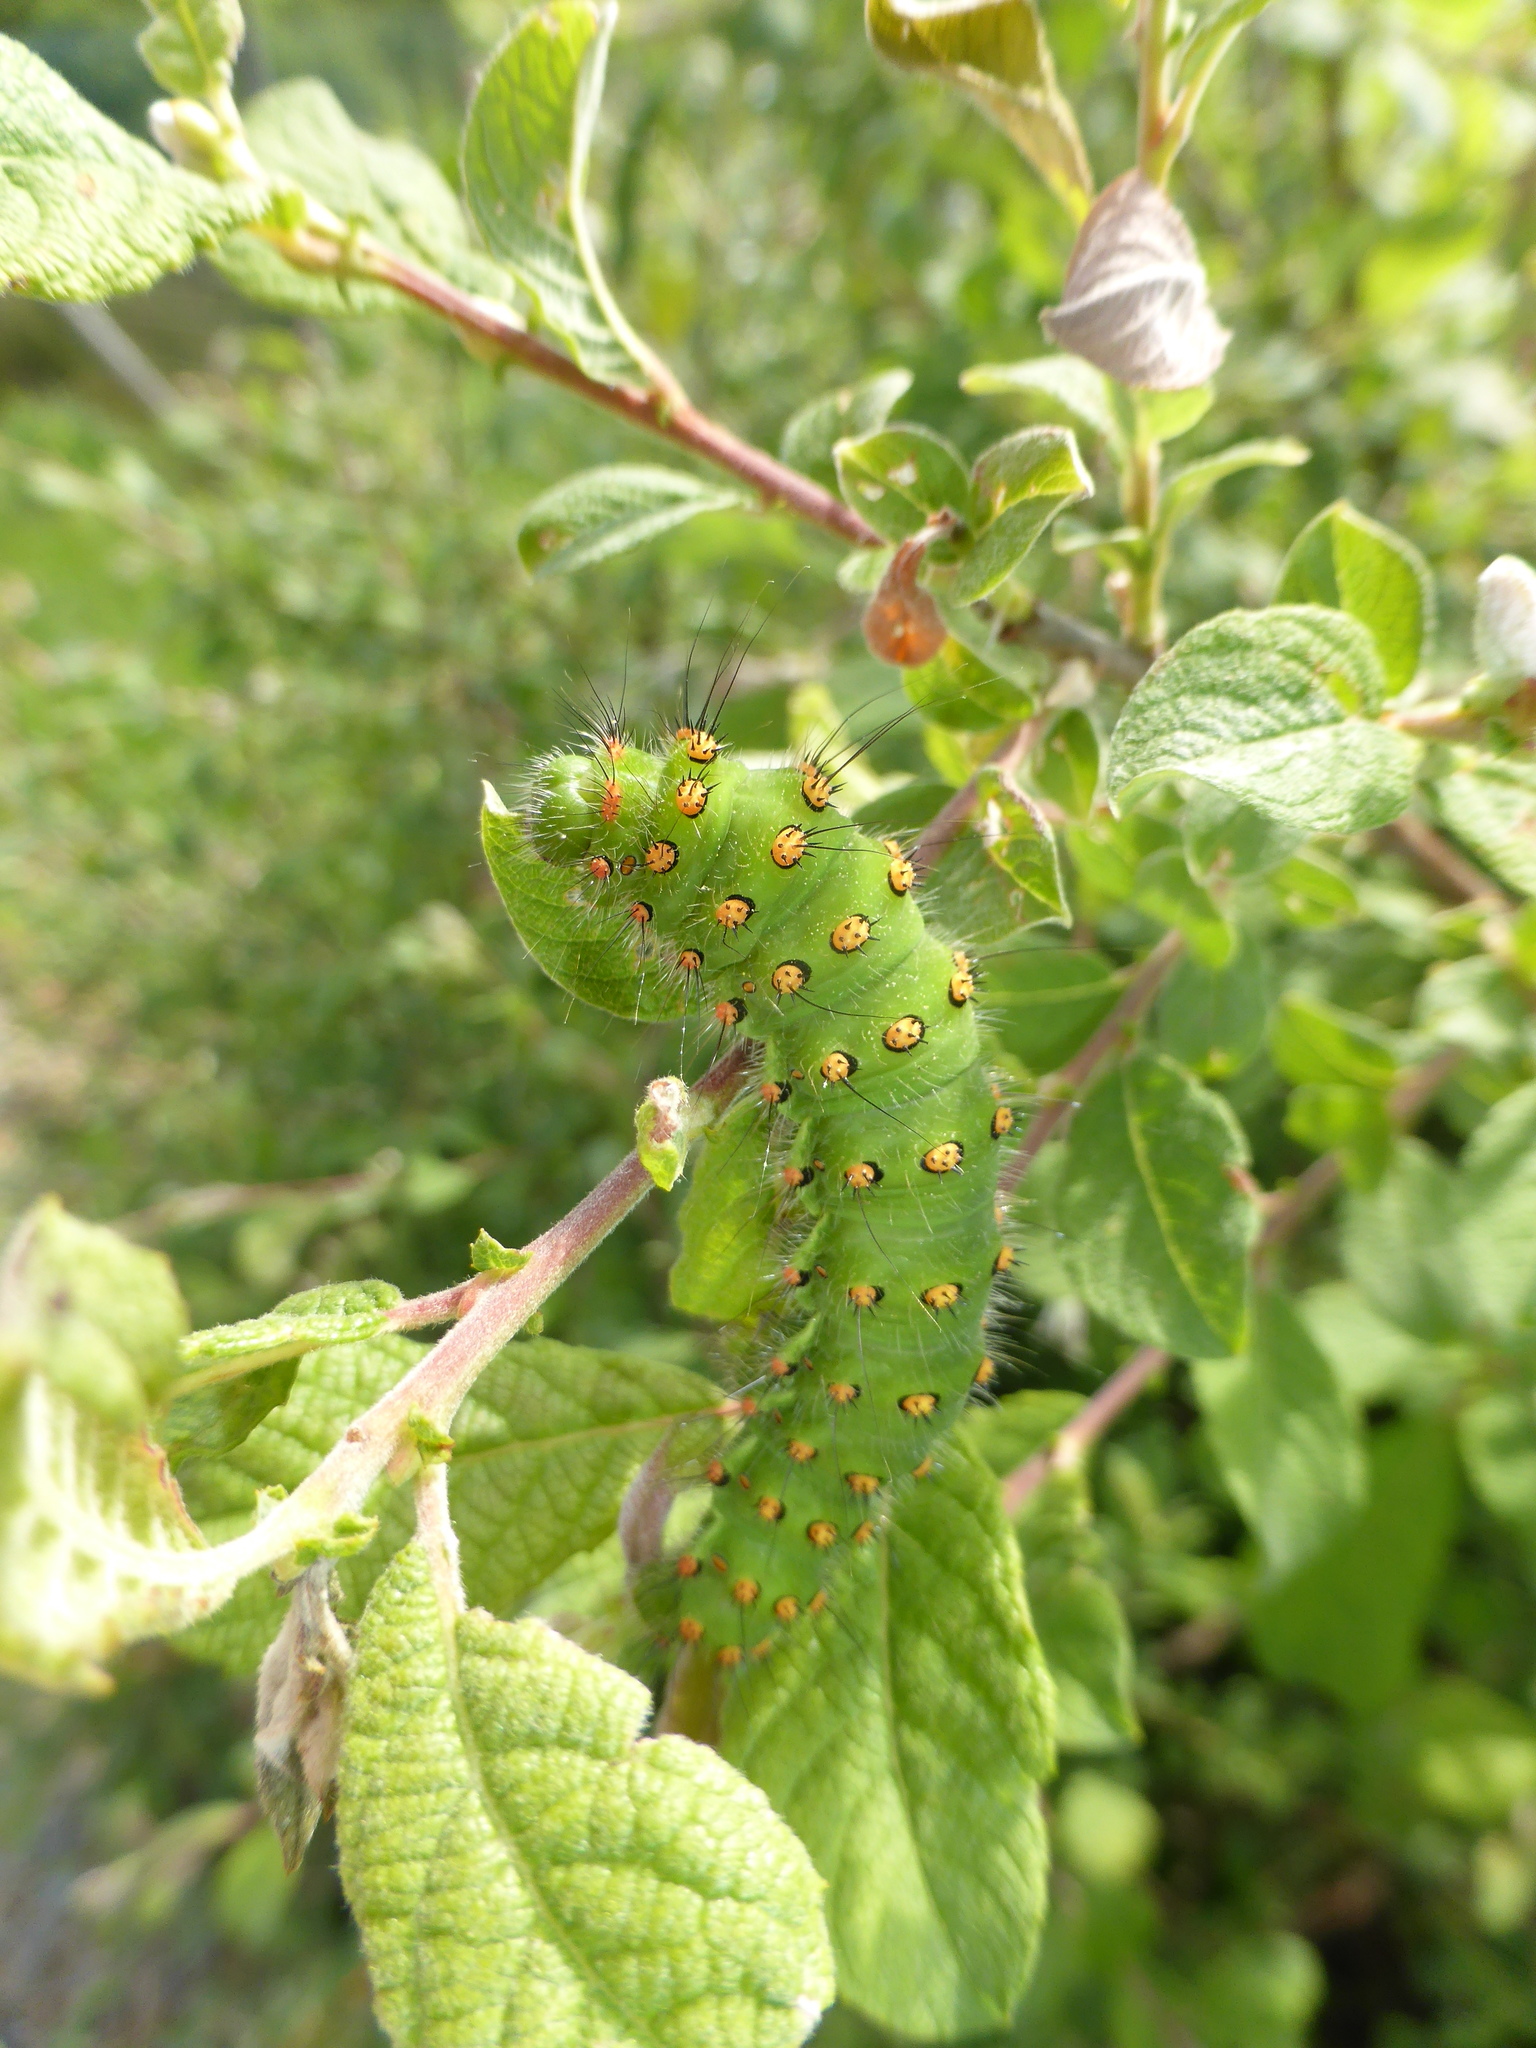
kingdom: Animalia
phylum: Arthropoda
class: Insecta
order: Lepidoptera
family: Saturniidae
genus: Saturnia
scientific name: Saturnia pavonia
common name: Emperor moth
